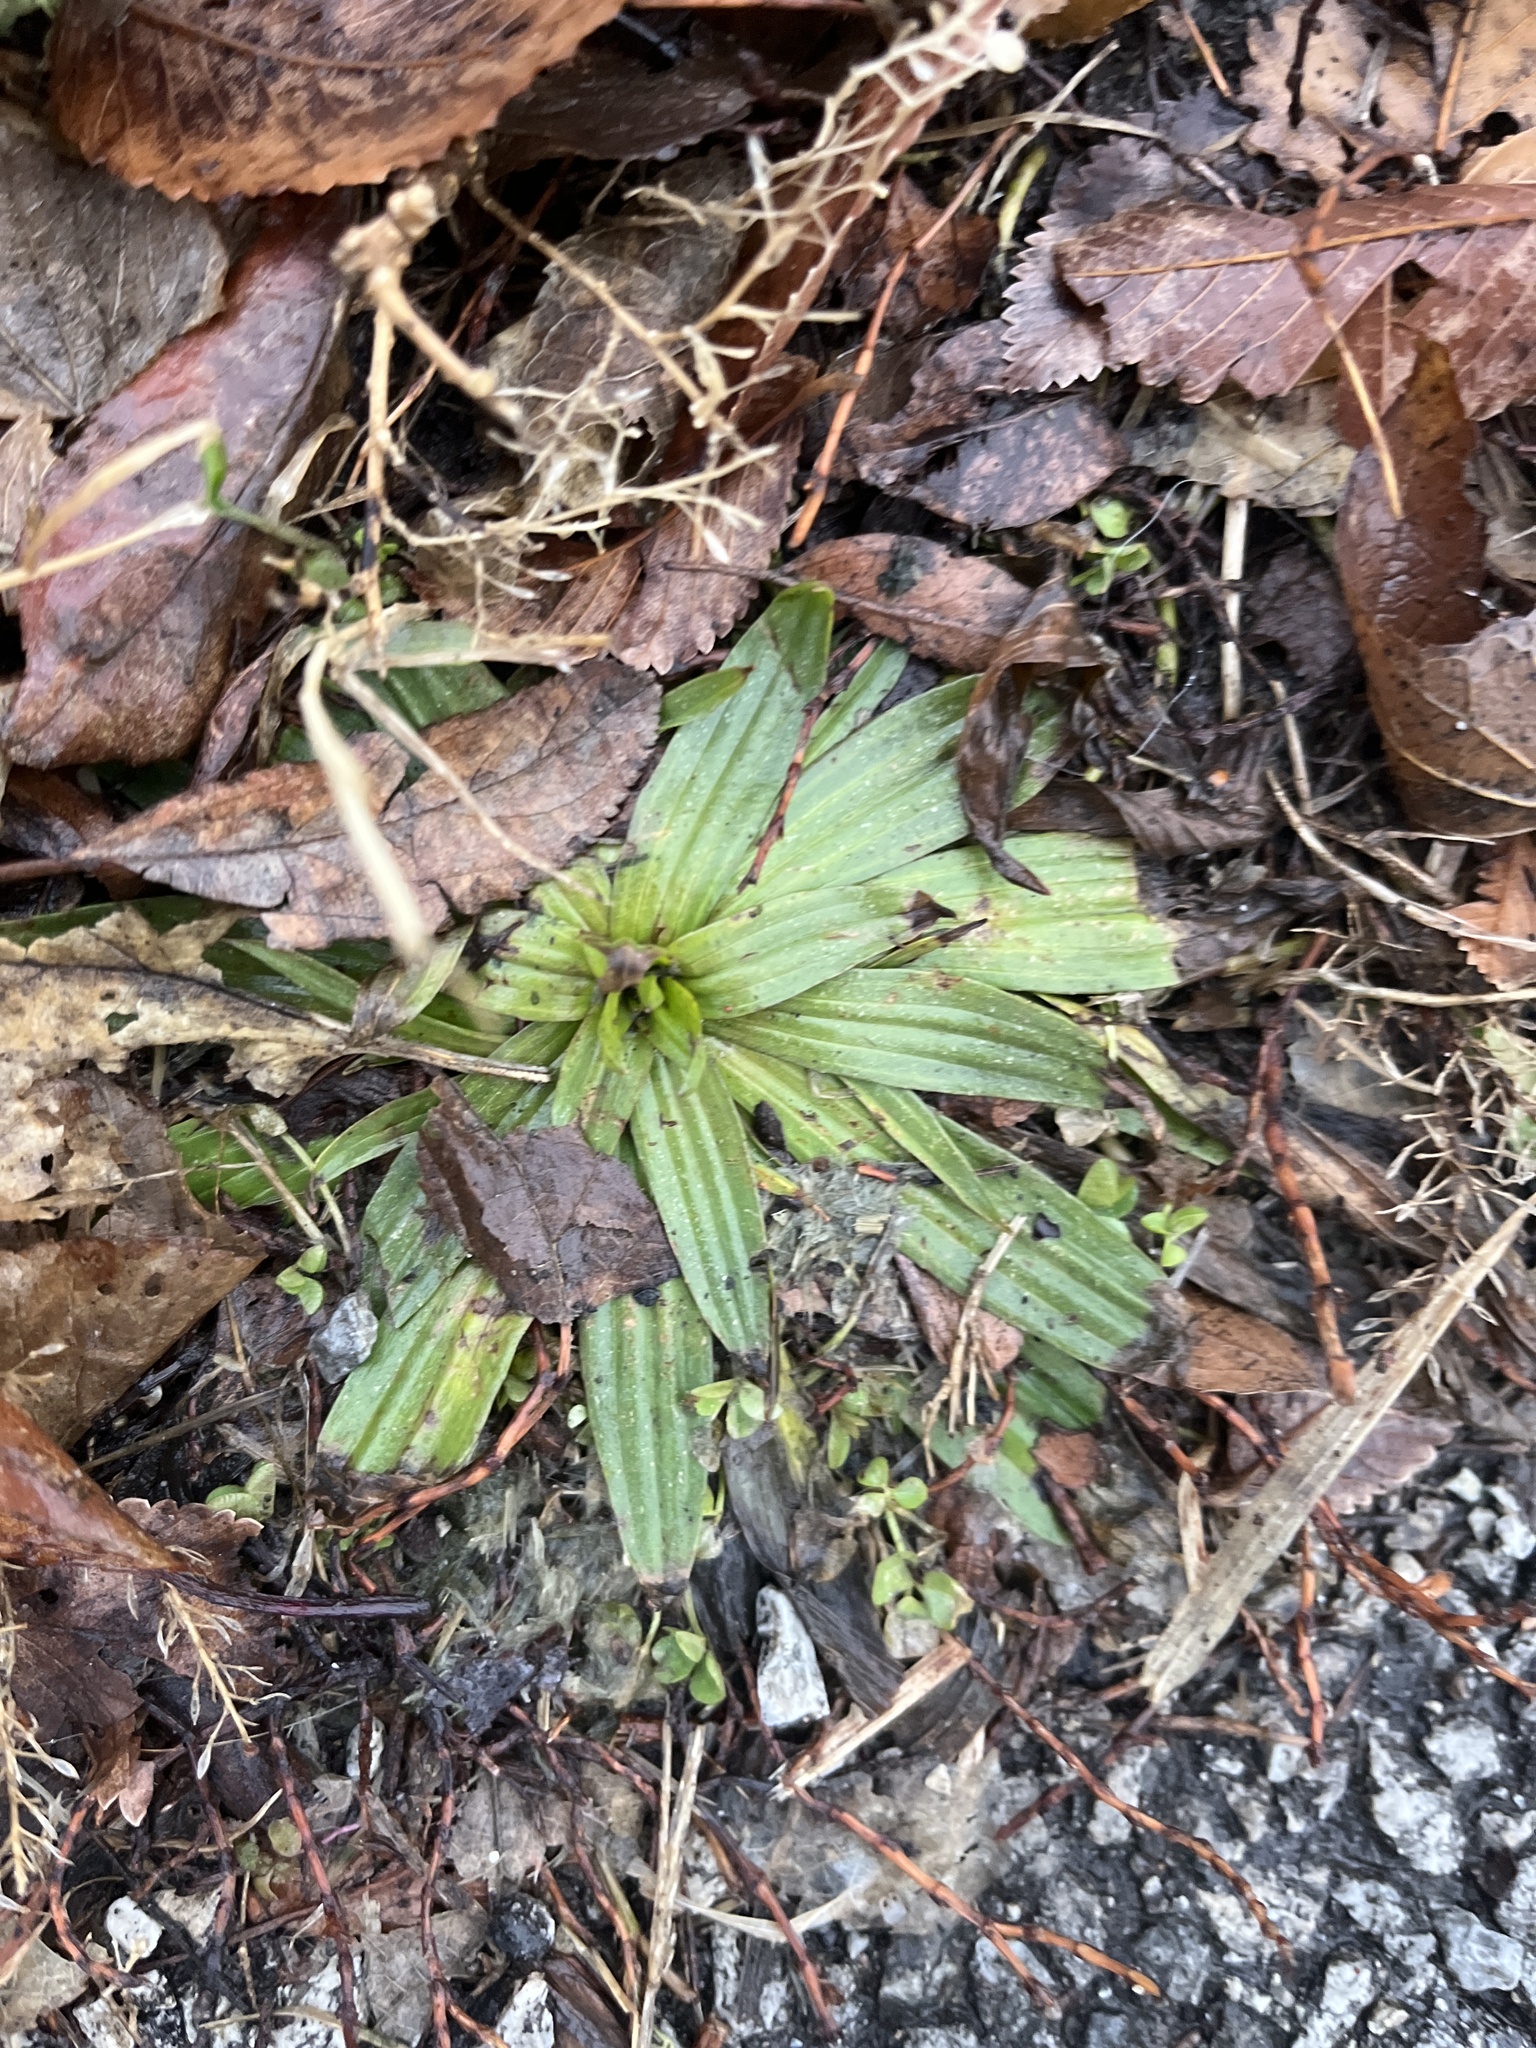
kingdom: Plantae
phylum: Tracheophyta
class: Magnoliopsida
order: Lamiales
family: Plantaginaceae
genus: Plantago
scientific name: Plantago lanceolata
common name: Ribwort plantain
